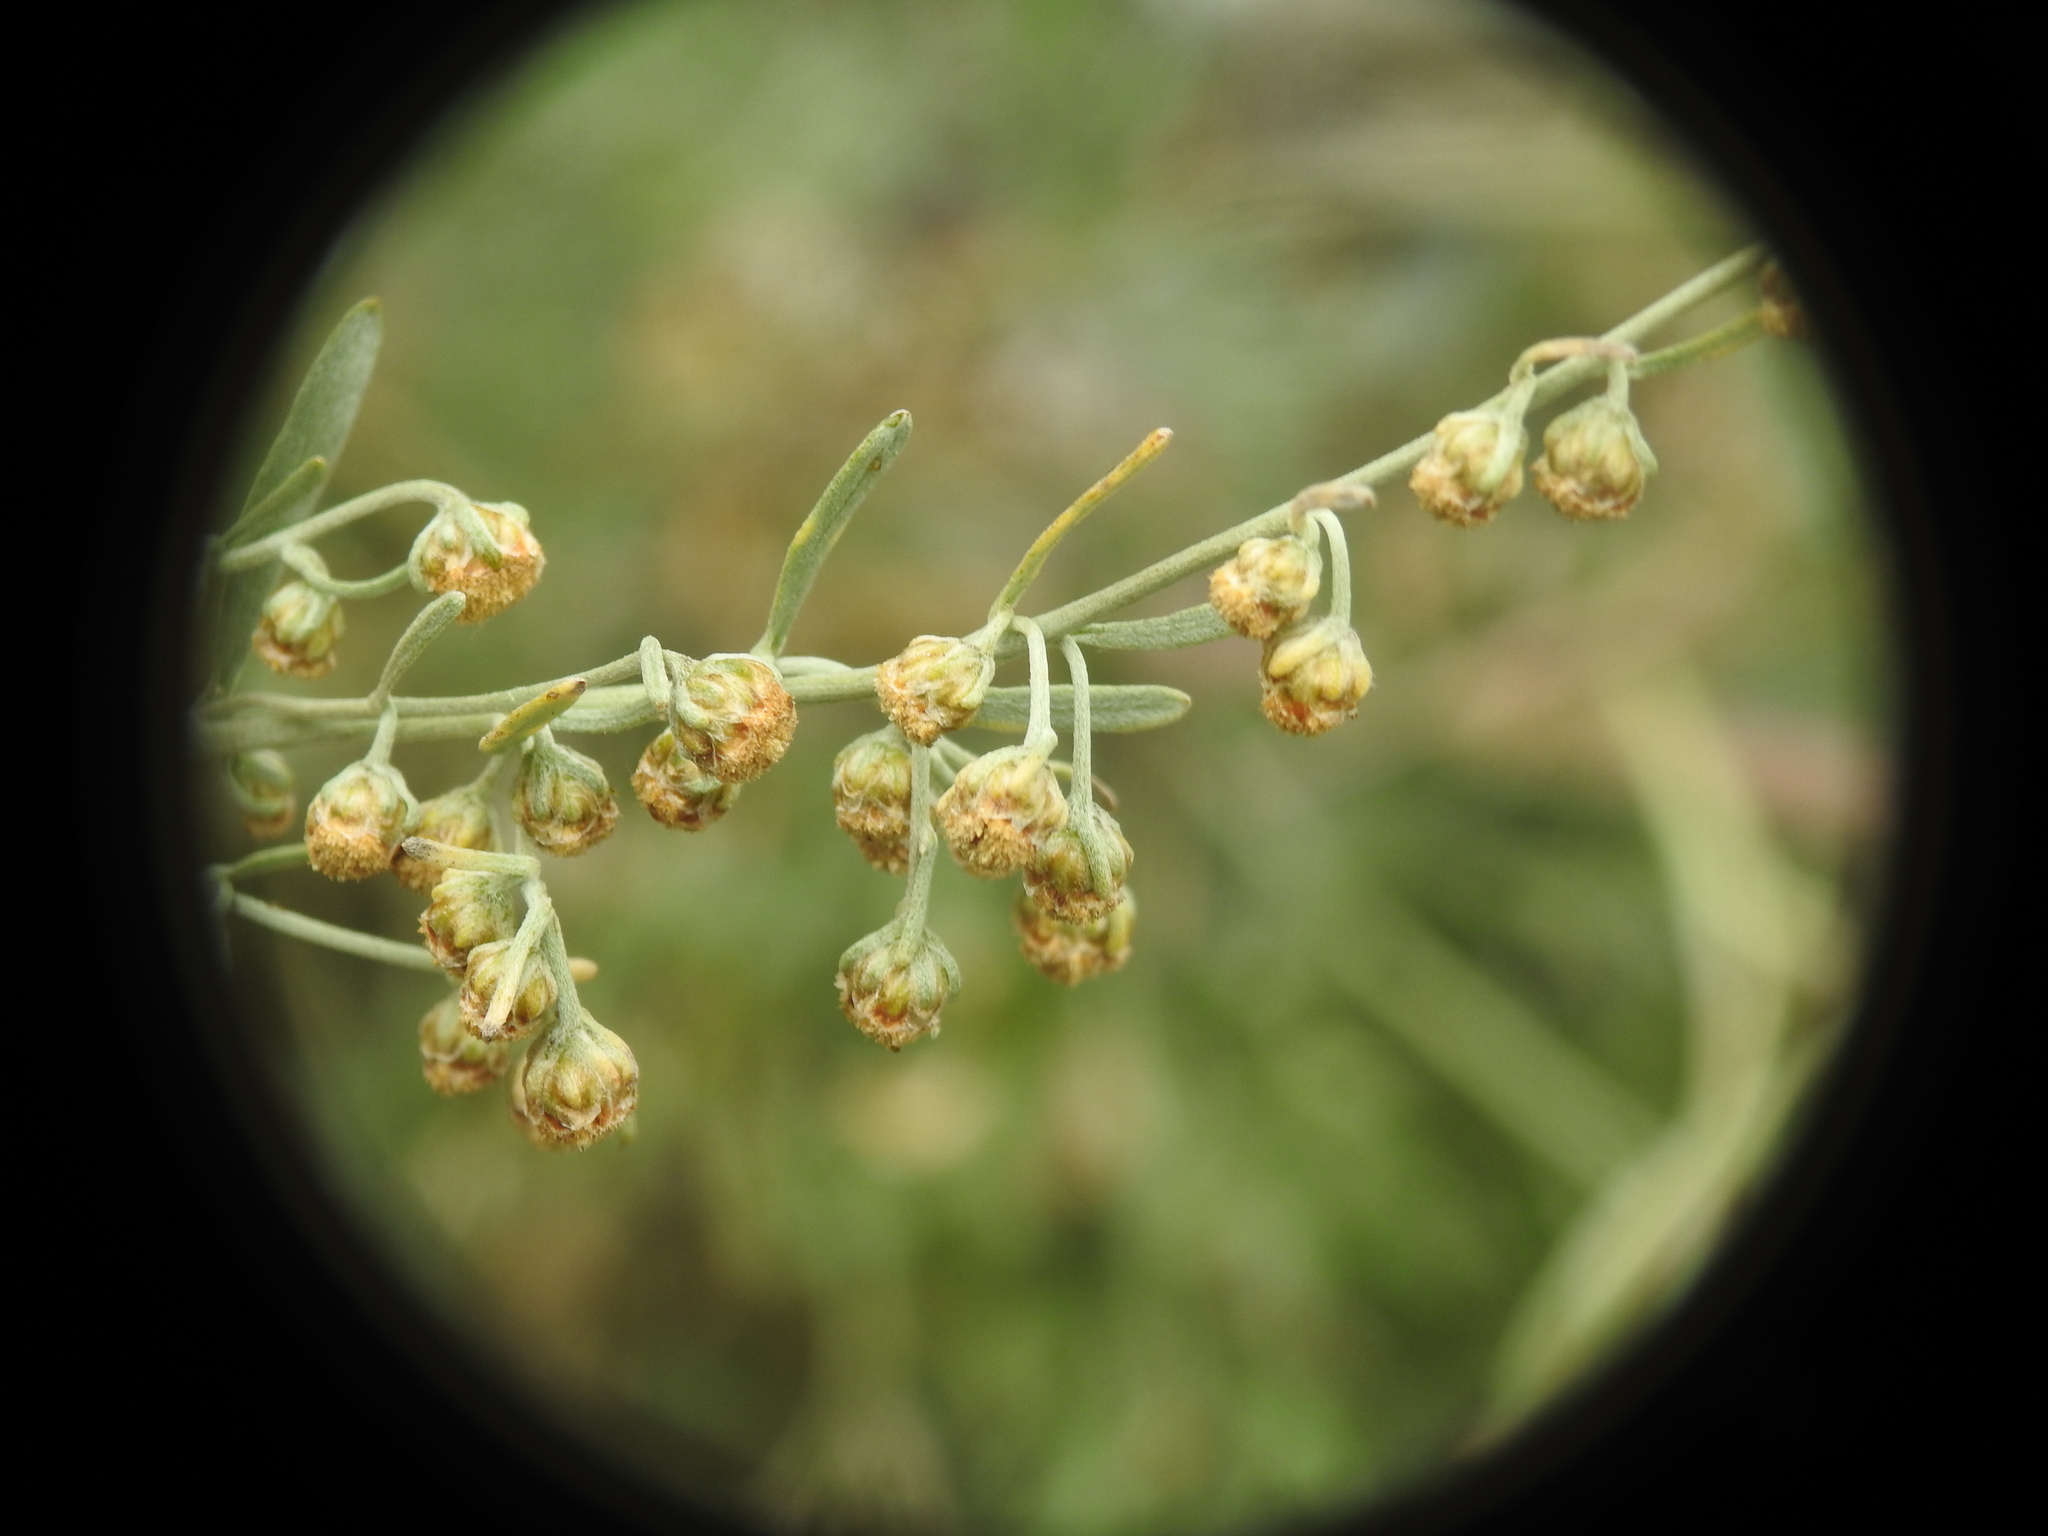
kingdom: Plantae
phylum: Tracheophyta
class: Magnoliopsida
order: Asterales
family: Asteraceae
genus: Artemisia
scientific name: Artemisia absinthium
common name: Wormwood
